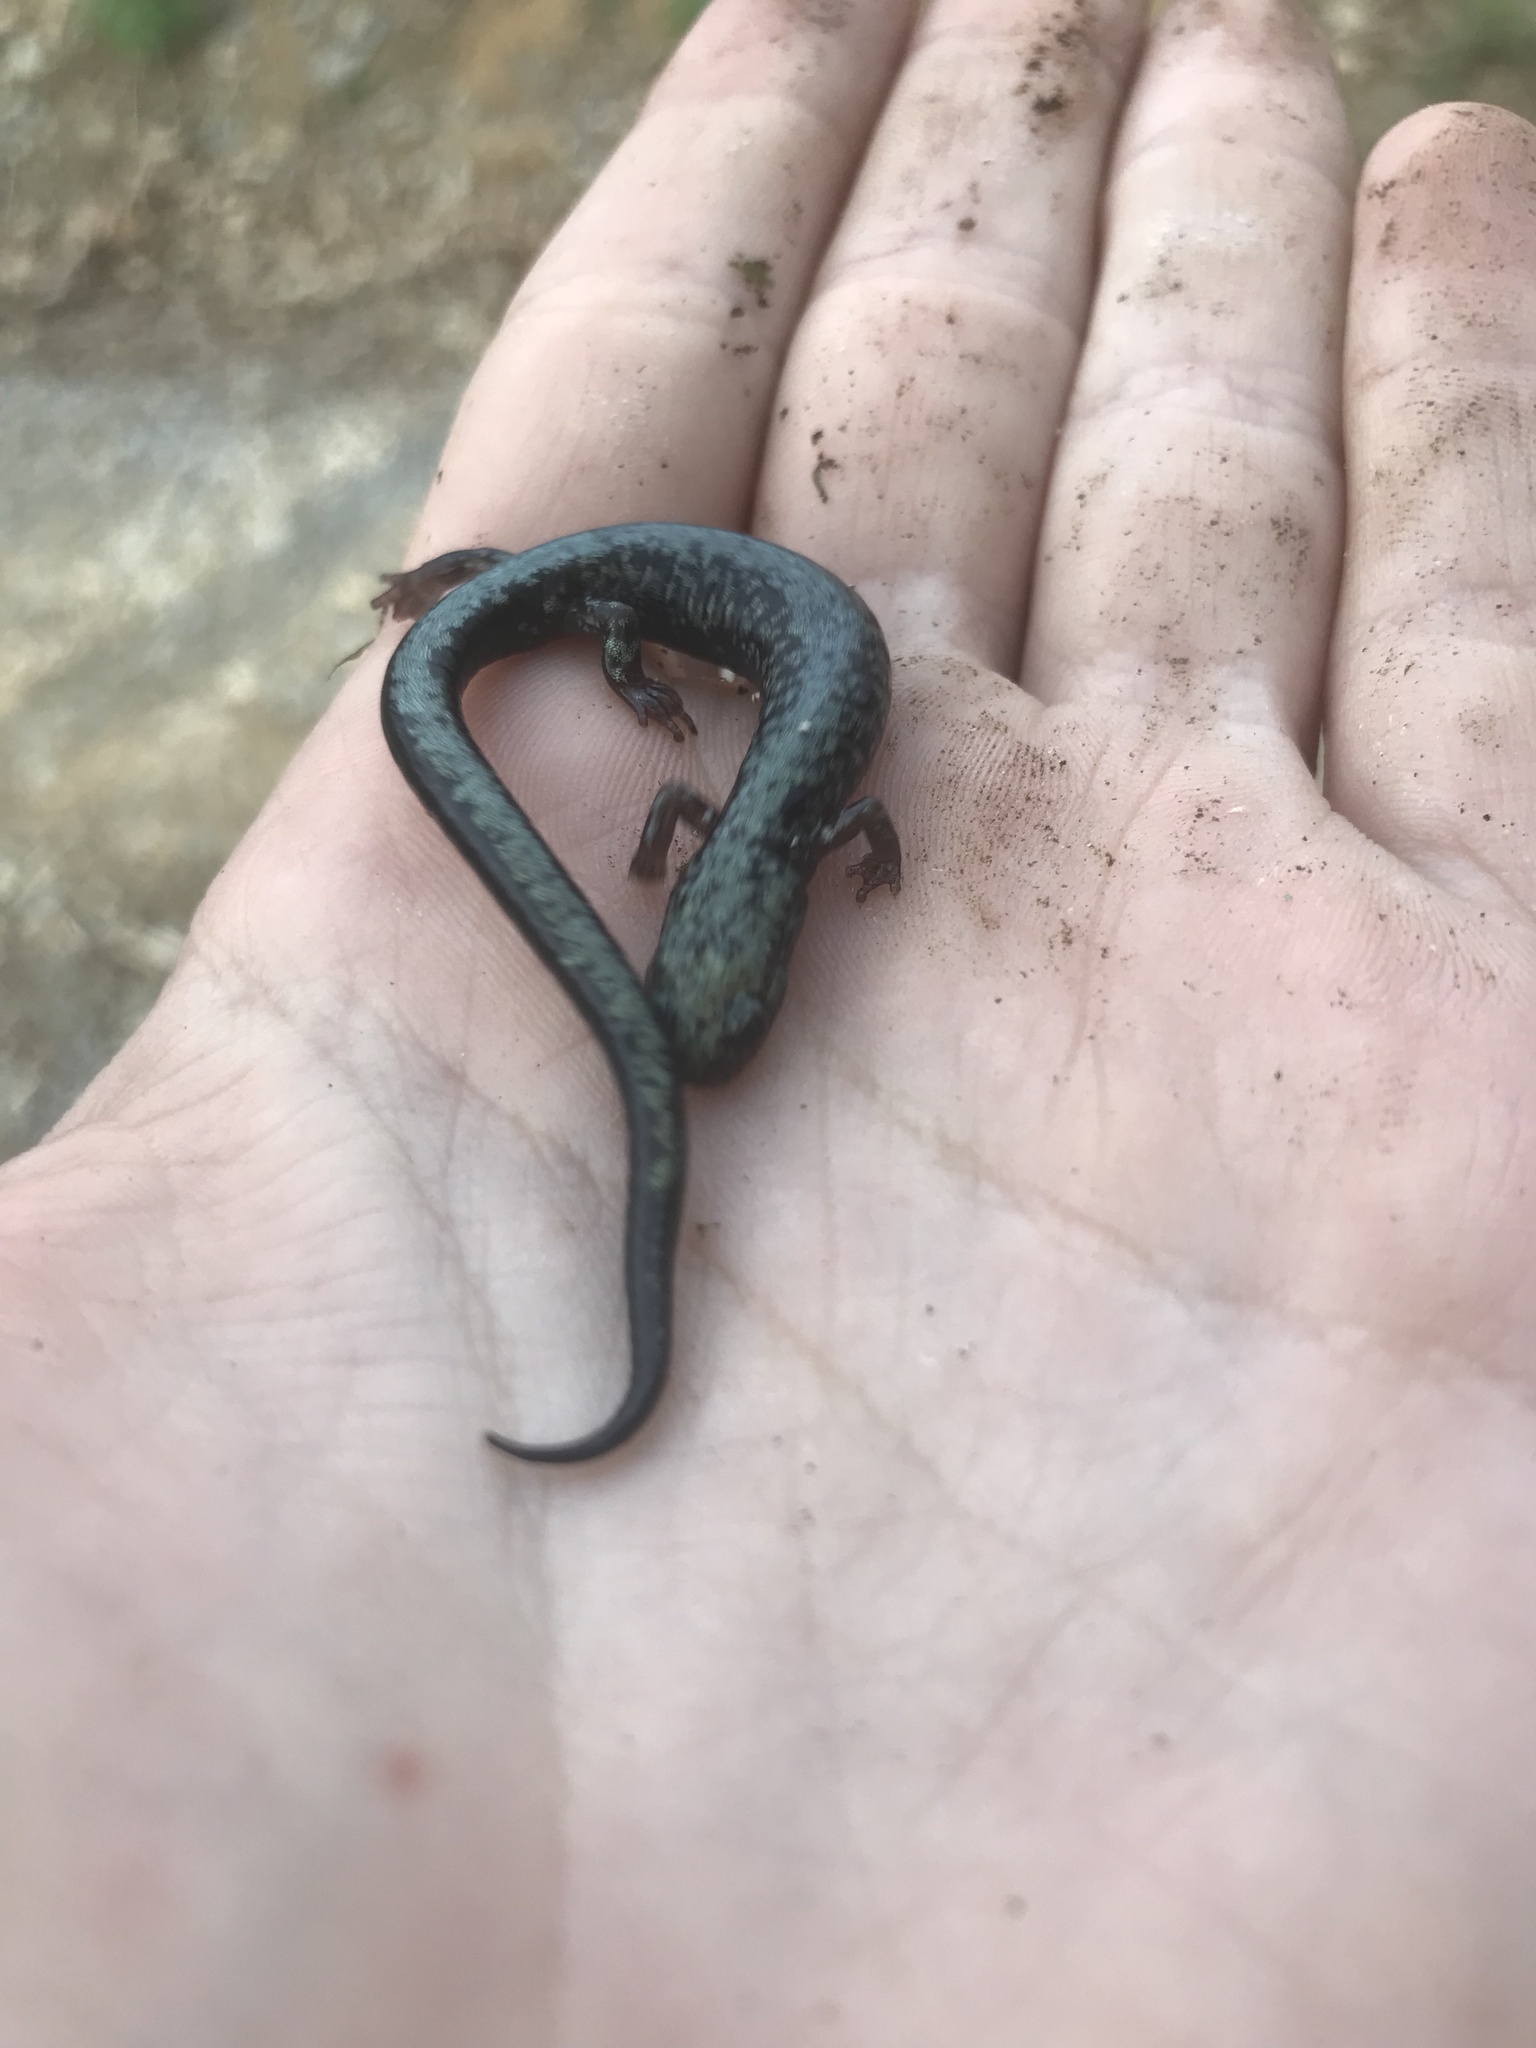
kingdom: Animalia
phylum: Chordata
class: Amphibia
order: Caudata
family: Plethodontidae
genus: Plethodon
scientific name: Plethodon hubrichti
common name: Peaks of otter salamander
